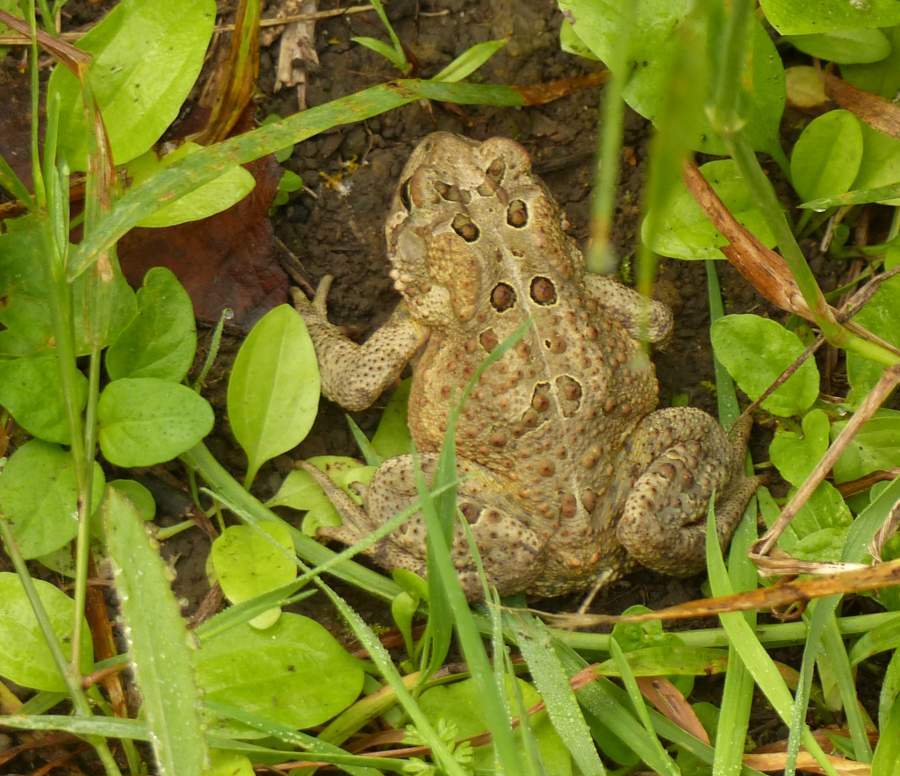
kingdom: Animalia
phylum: Chordata
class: Amphibia
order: Anura
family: Bufonidae
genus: Anaxyrus
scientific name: Anaxyrus americanus
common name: American toad
